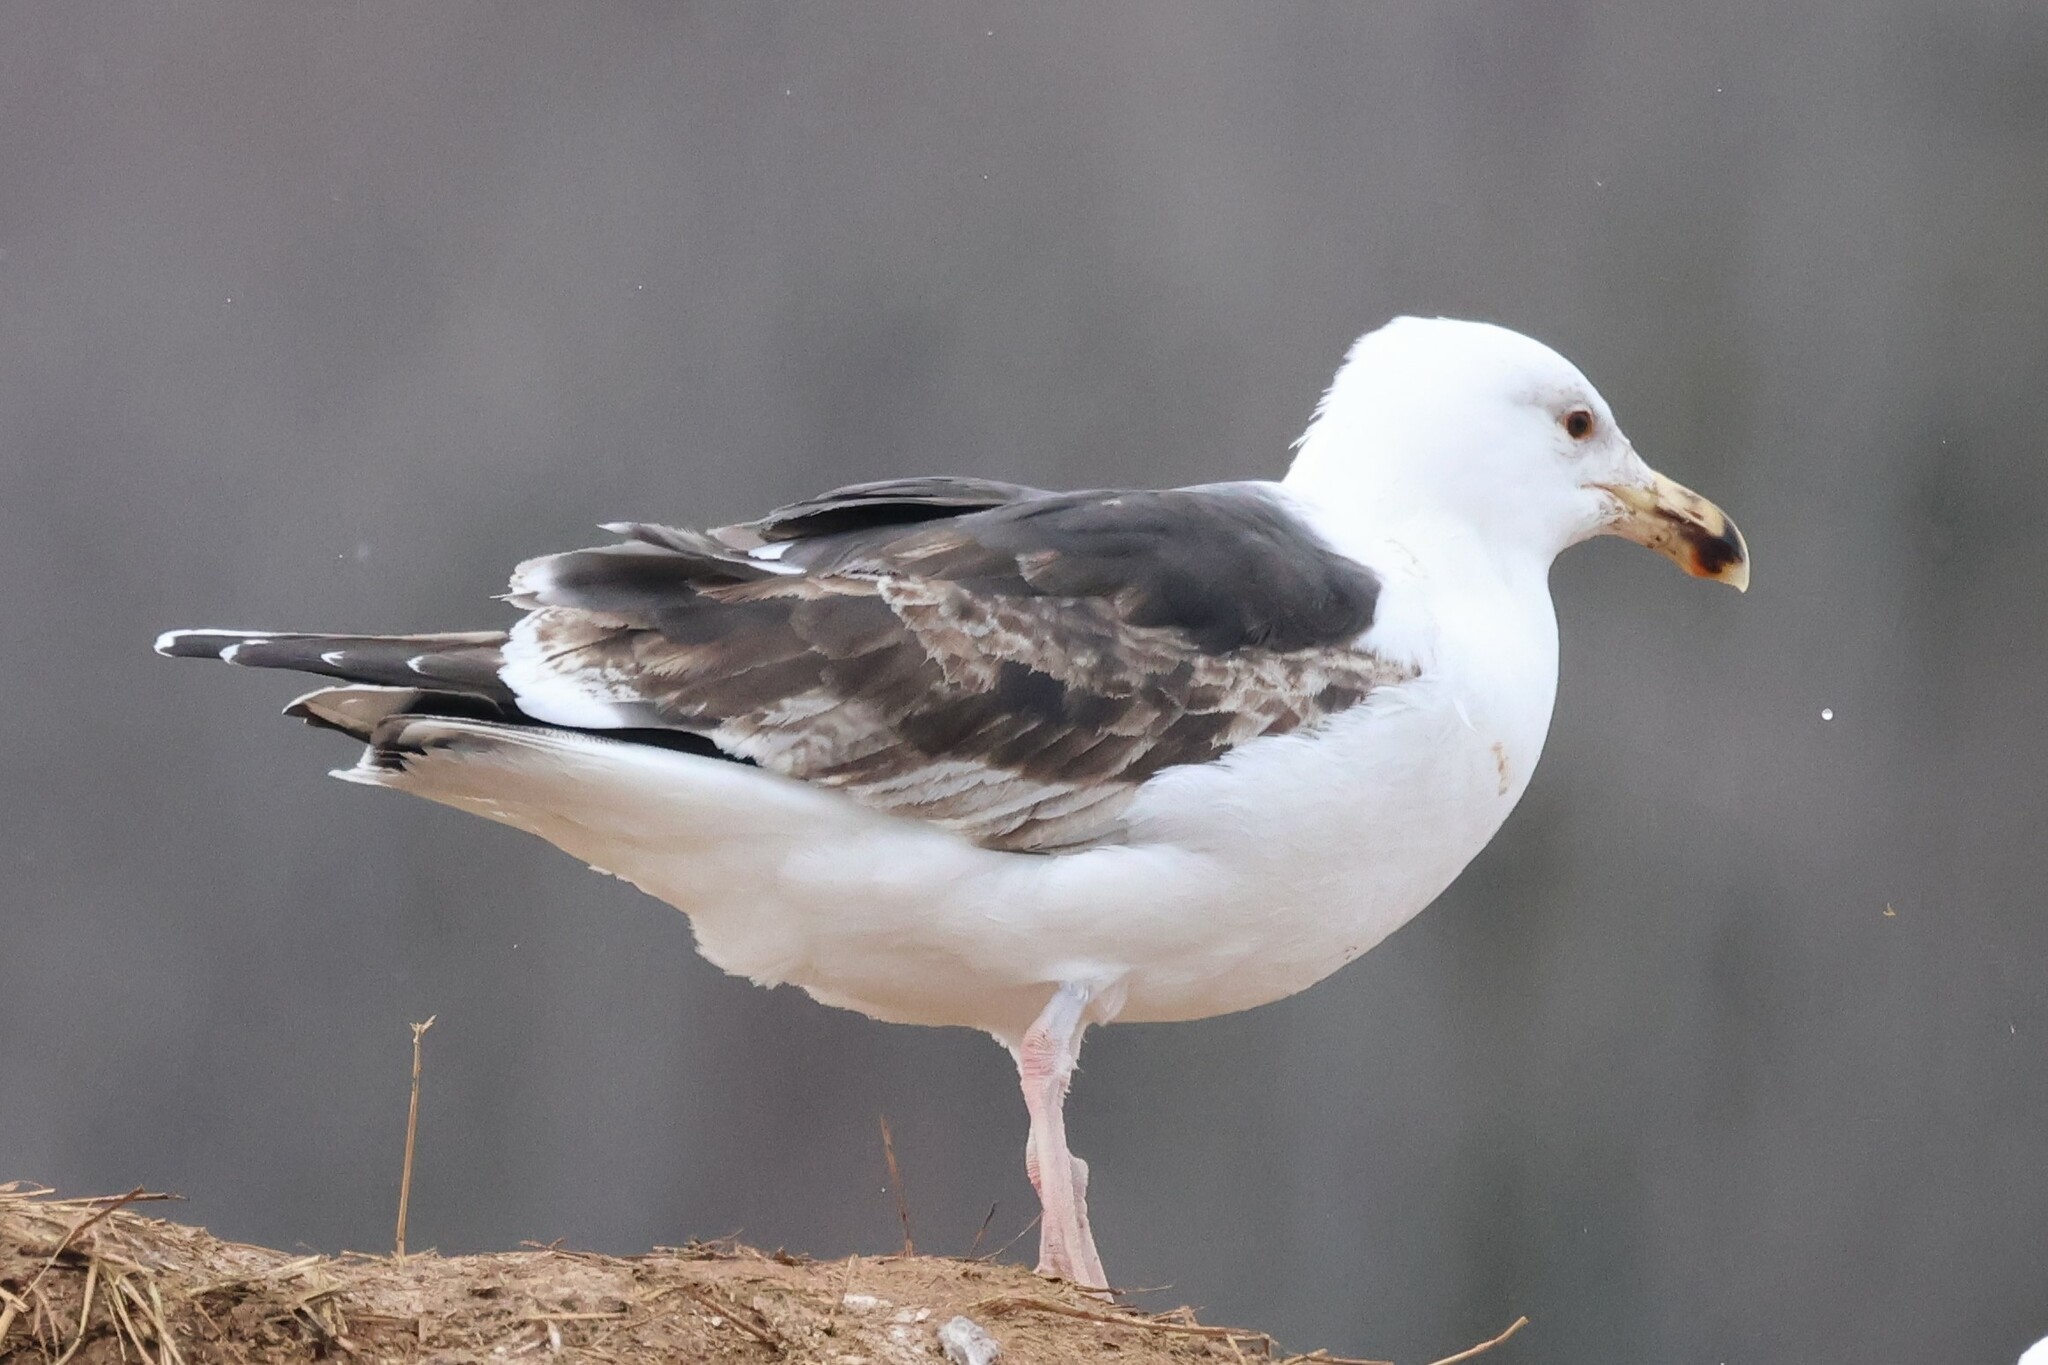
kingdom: Animalia
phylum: Chordata
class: Aves
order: Charadriiformes
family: Laridae
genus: Larus
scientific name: Larus marinus
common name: Great black-backed gull
